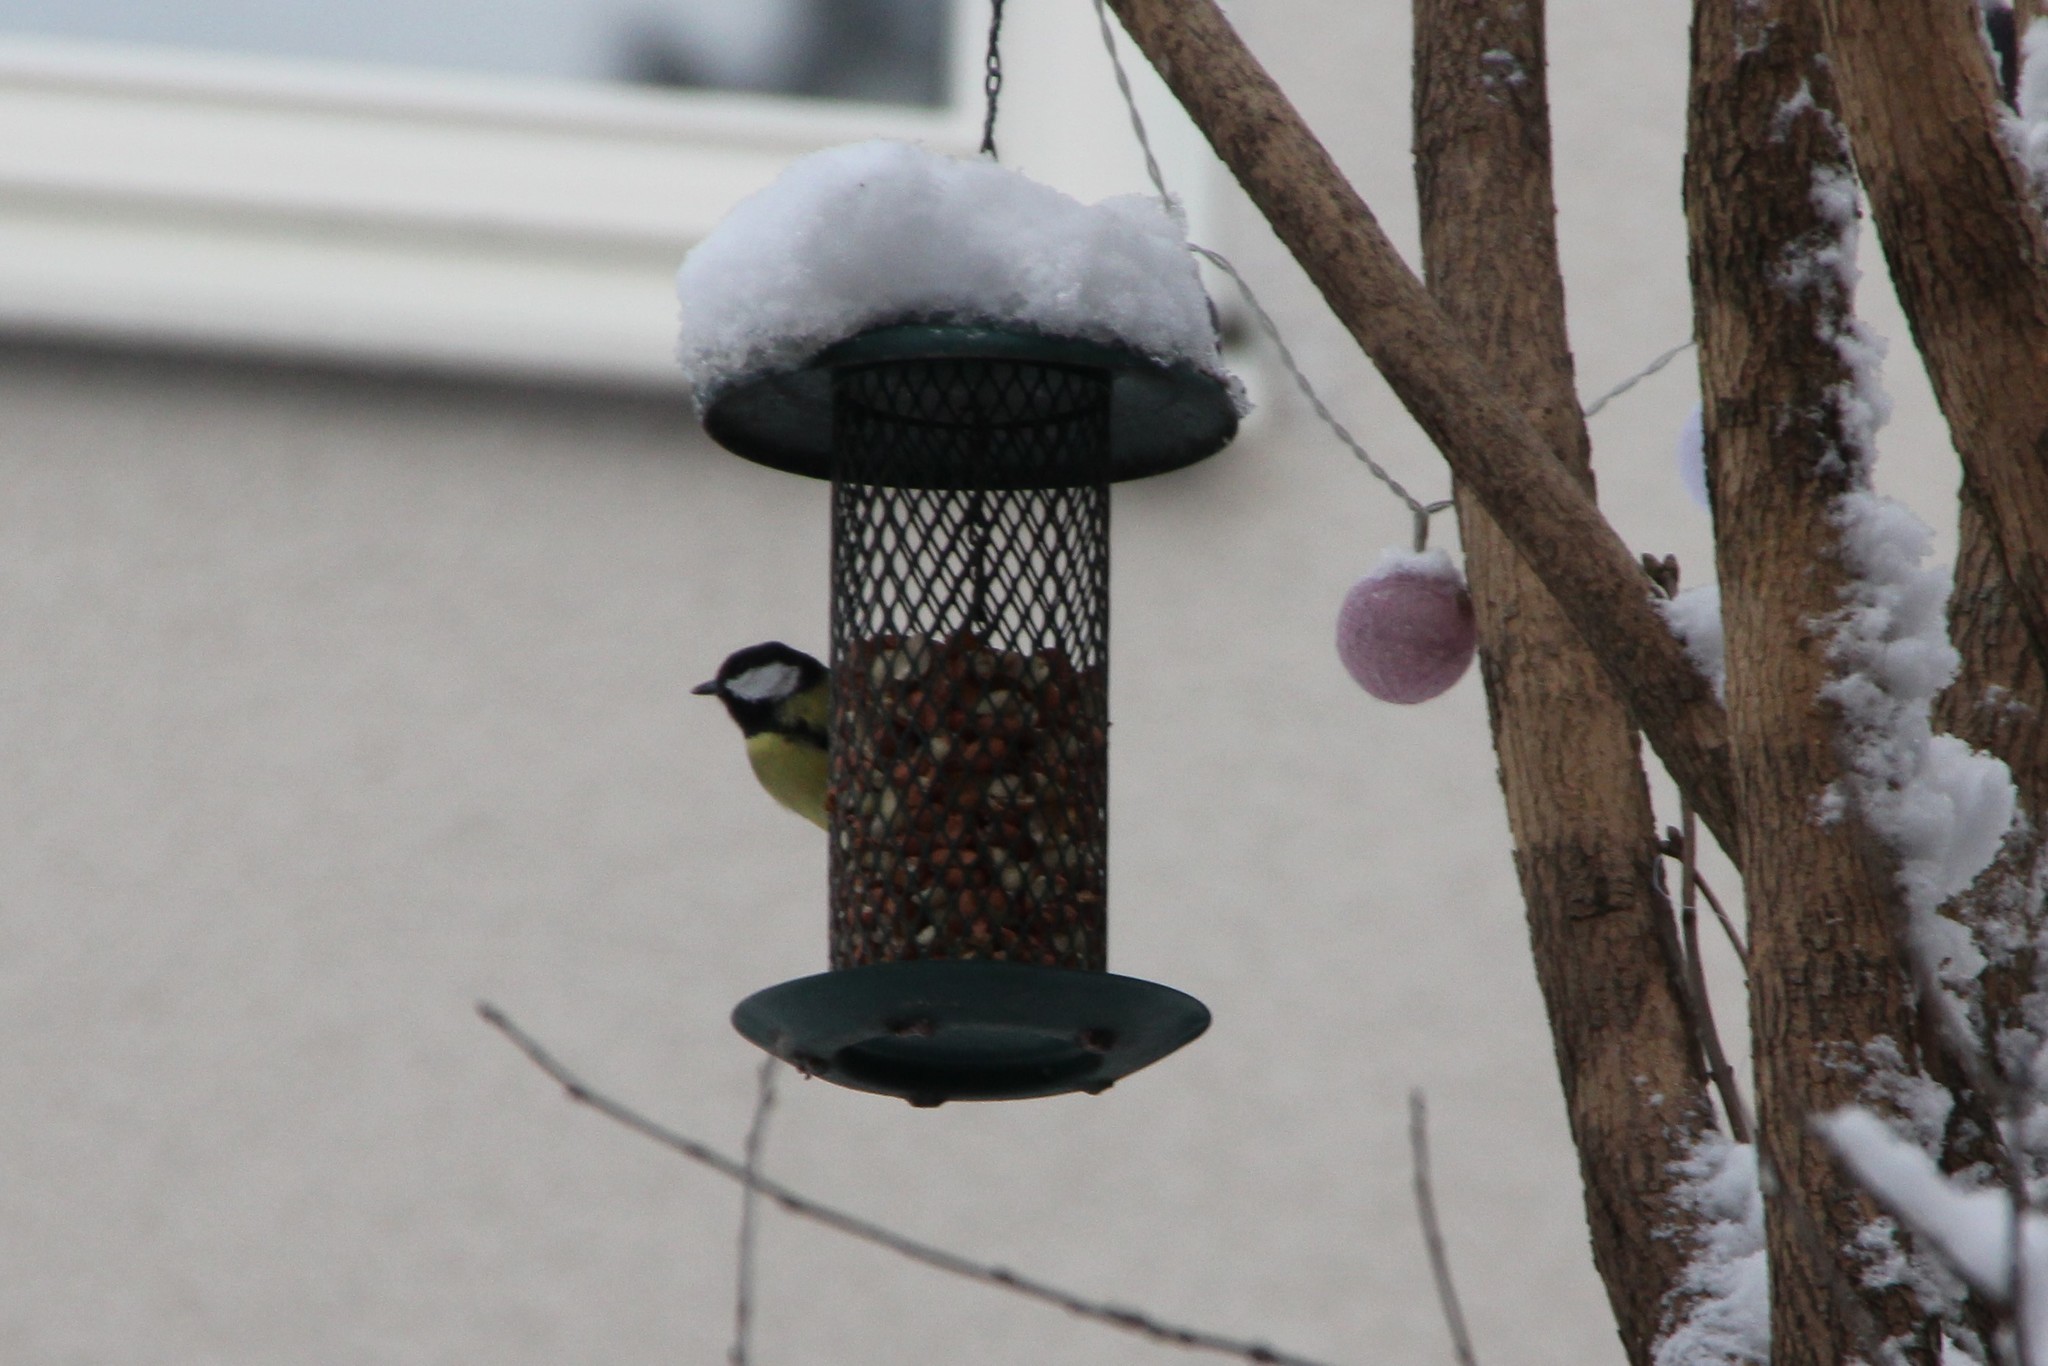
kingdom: Animalia
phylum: Chordata
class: Aves
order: Passeriformes
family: Paridae
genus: Parus
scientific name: Parus major
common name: Great tit
